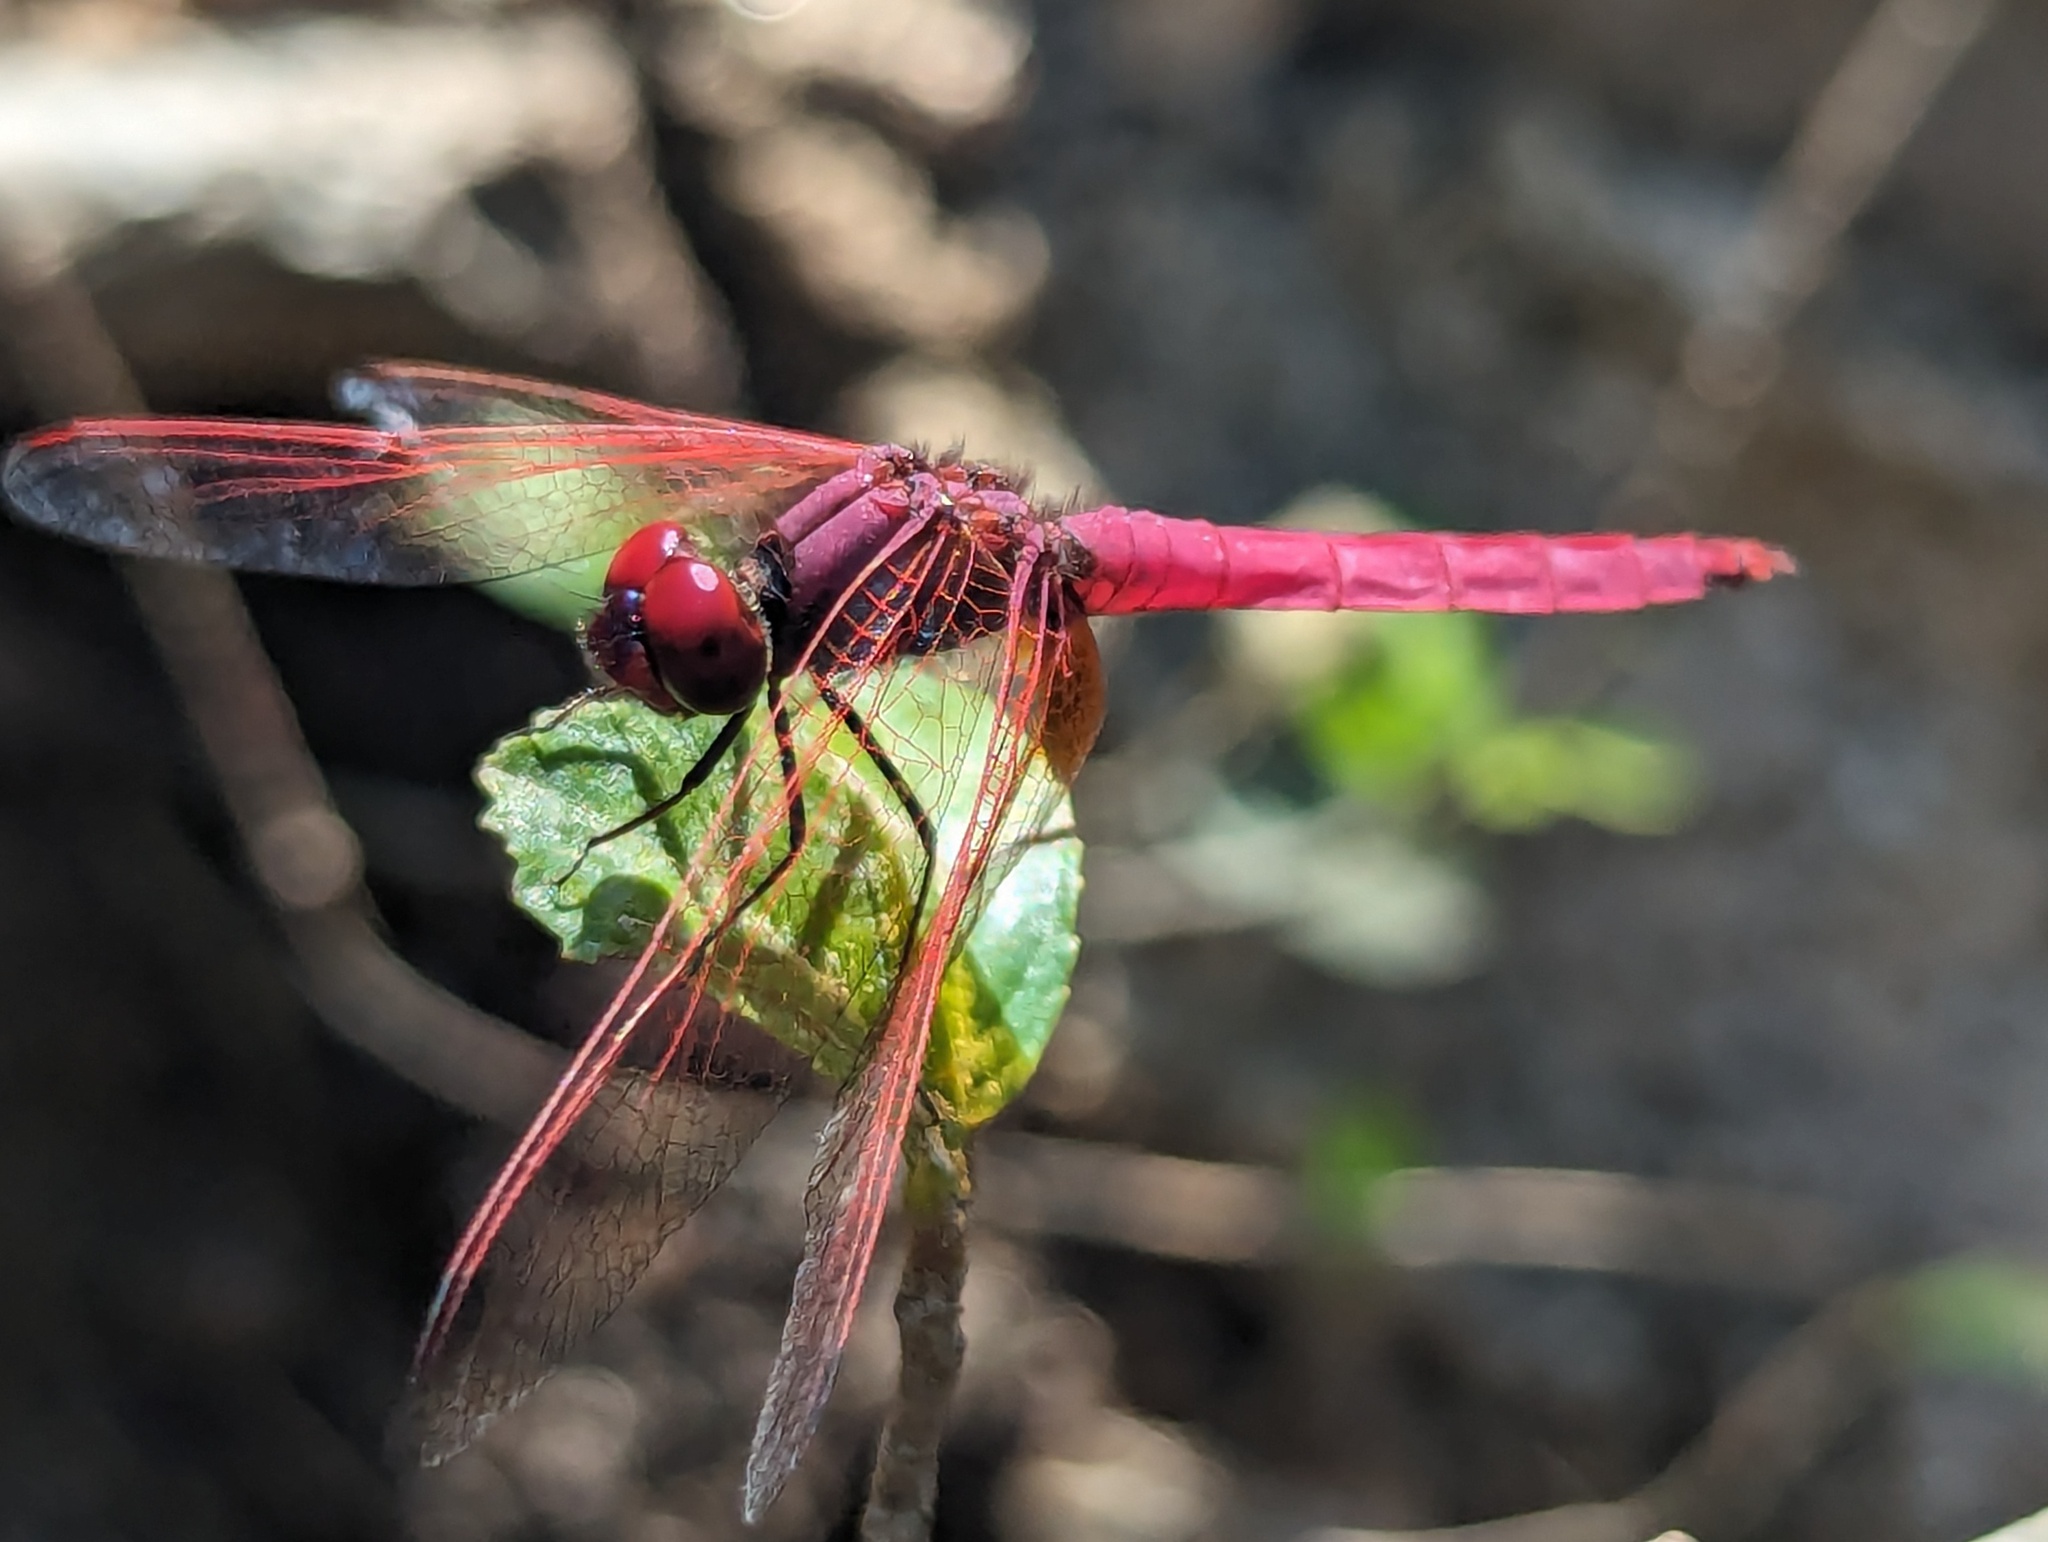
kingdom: Animalia
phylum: Arthropoda
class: Insecta
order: Odonata
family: Libellulidae
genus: Trithemis
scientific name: Trithemis aurora
